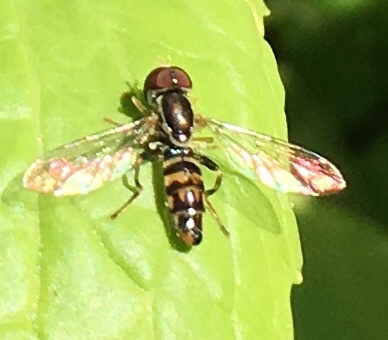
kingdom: Animalia
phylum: Arthropoda
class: Insecta
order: Diptera
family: Syrphidae
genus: Toxomerus
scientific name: Toxomerus geminatus
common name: Eastern calligrapher
